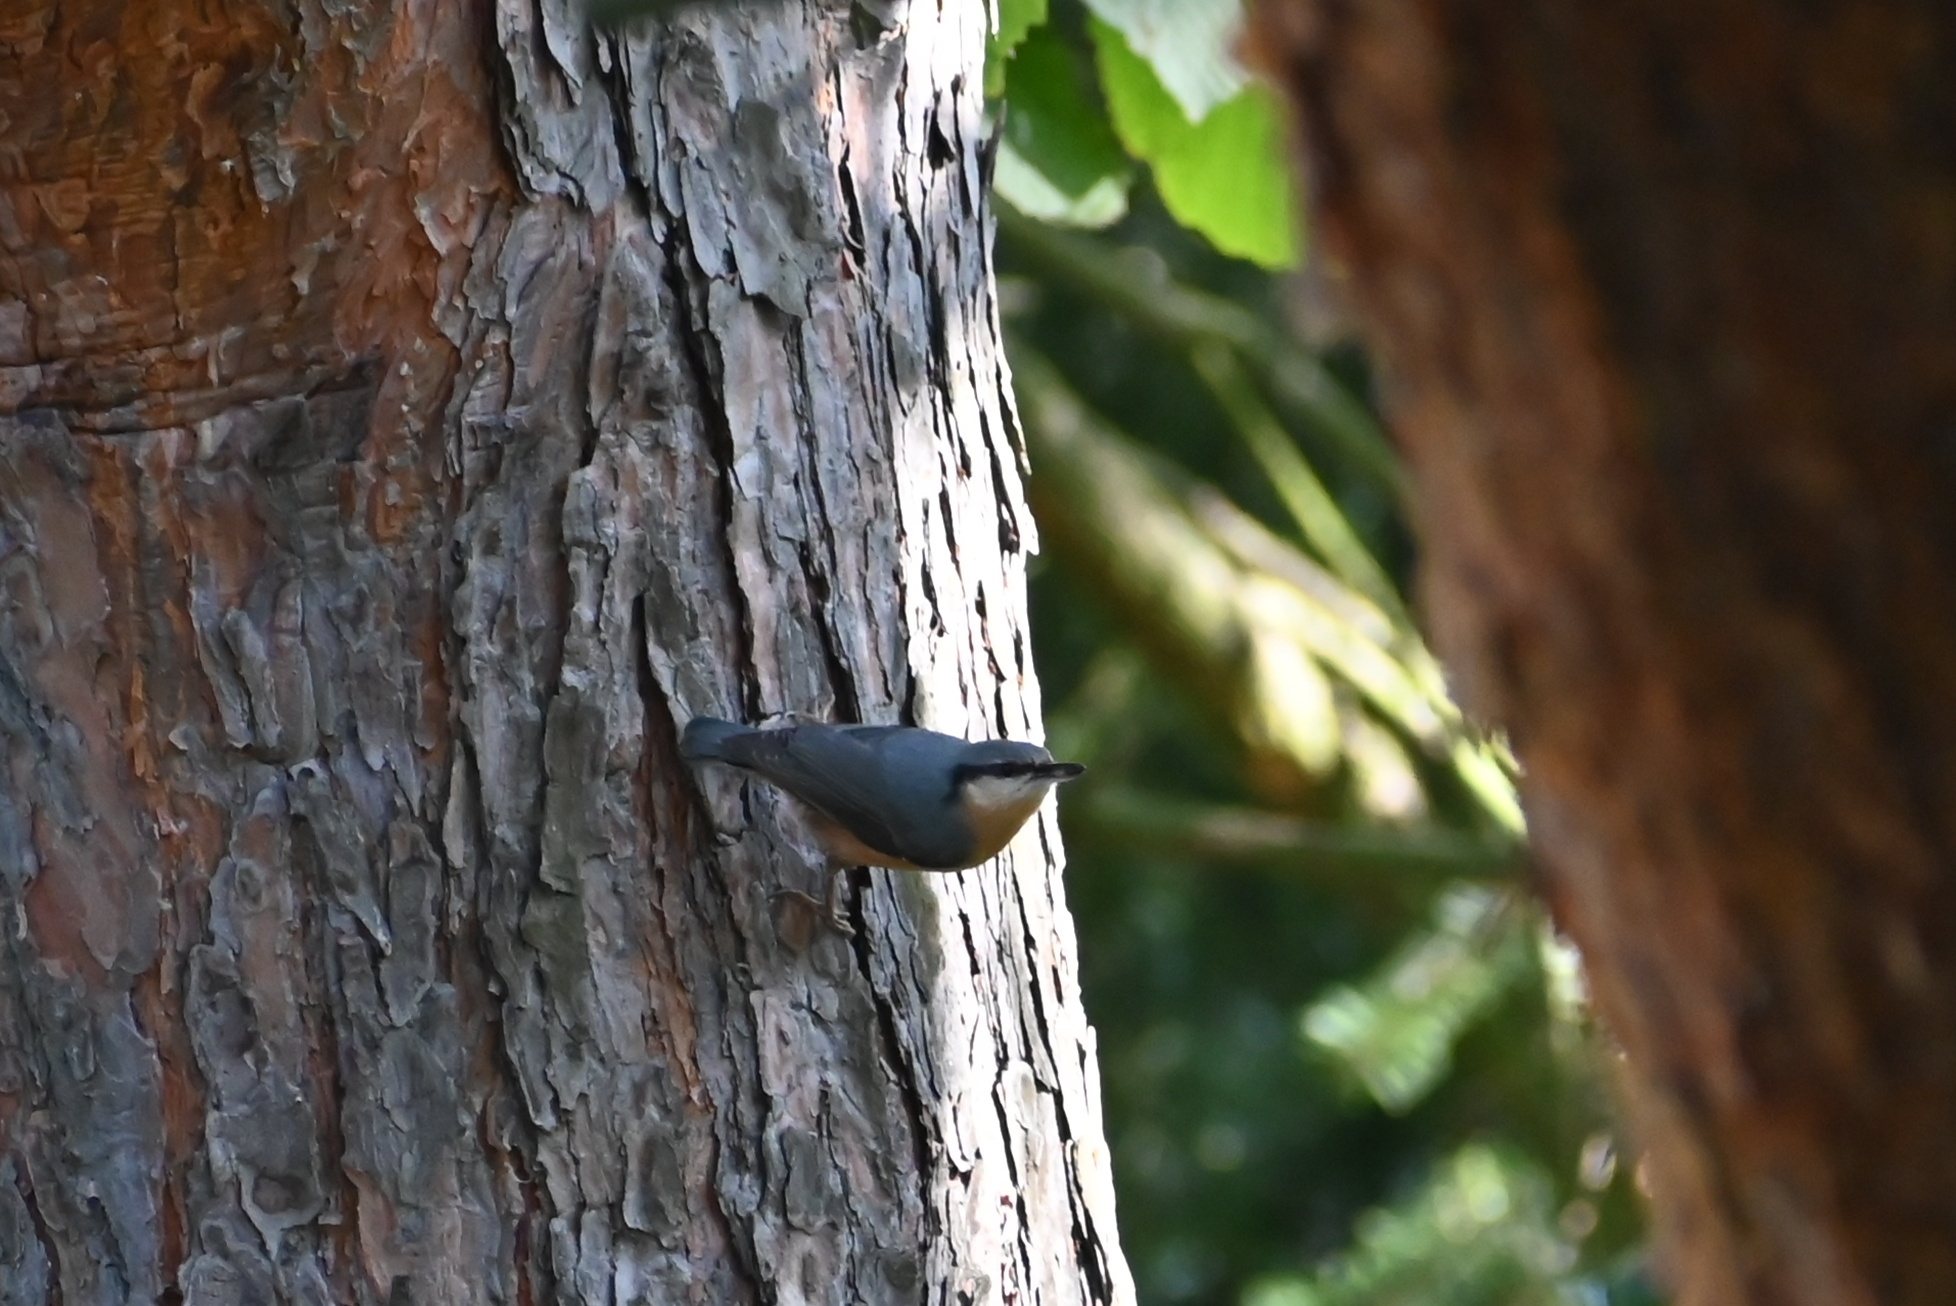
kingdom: Animalia
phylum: Chordata
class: Aves
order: Passeriformes
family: Sittidae
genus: Sitta
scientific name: Sitta europaea
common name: Eurasian nuthatch
